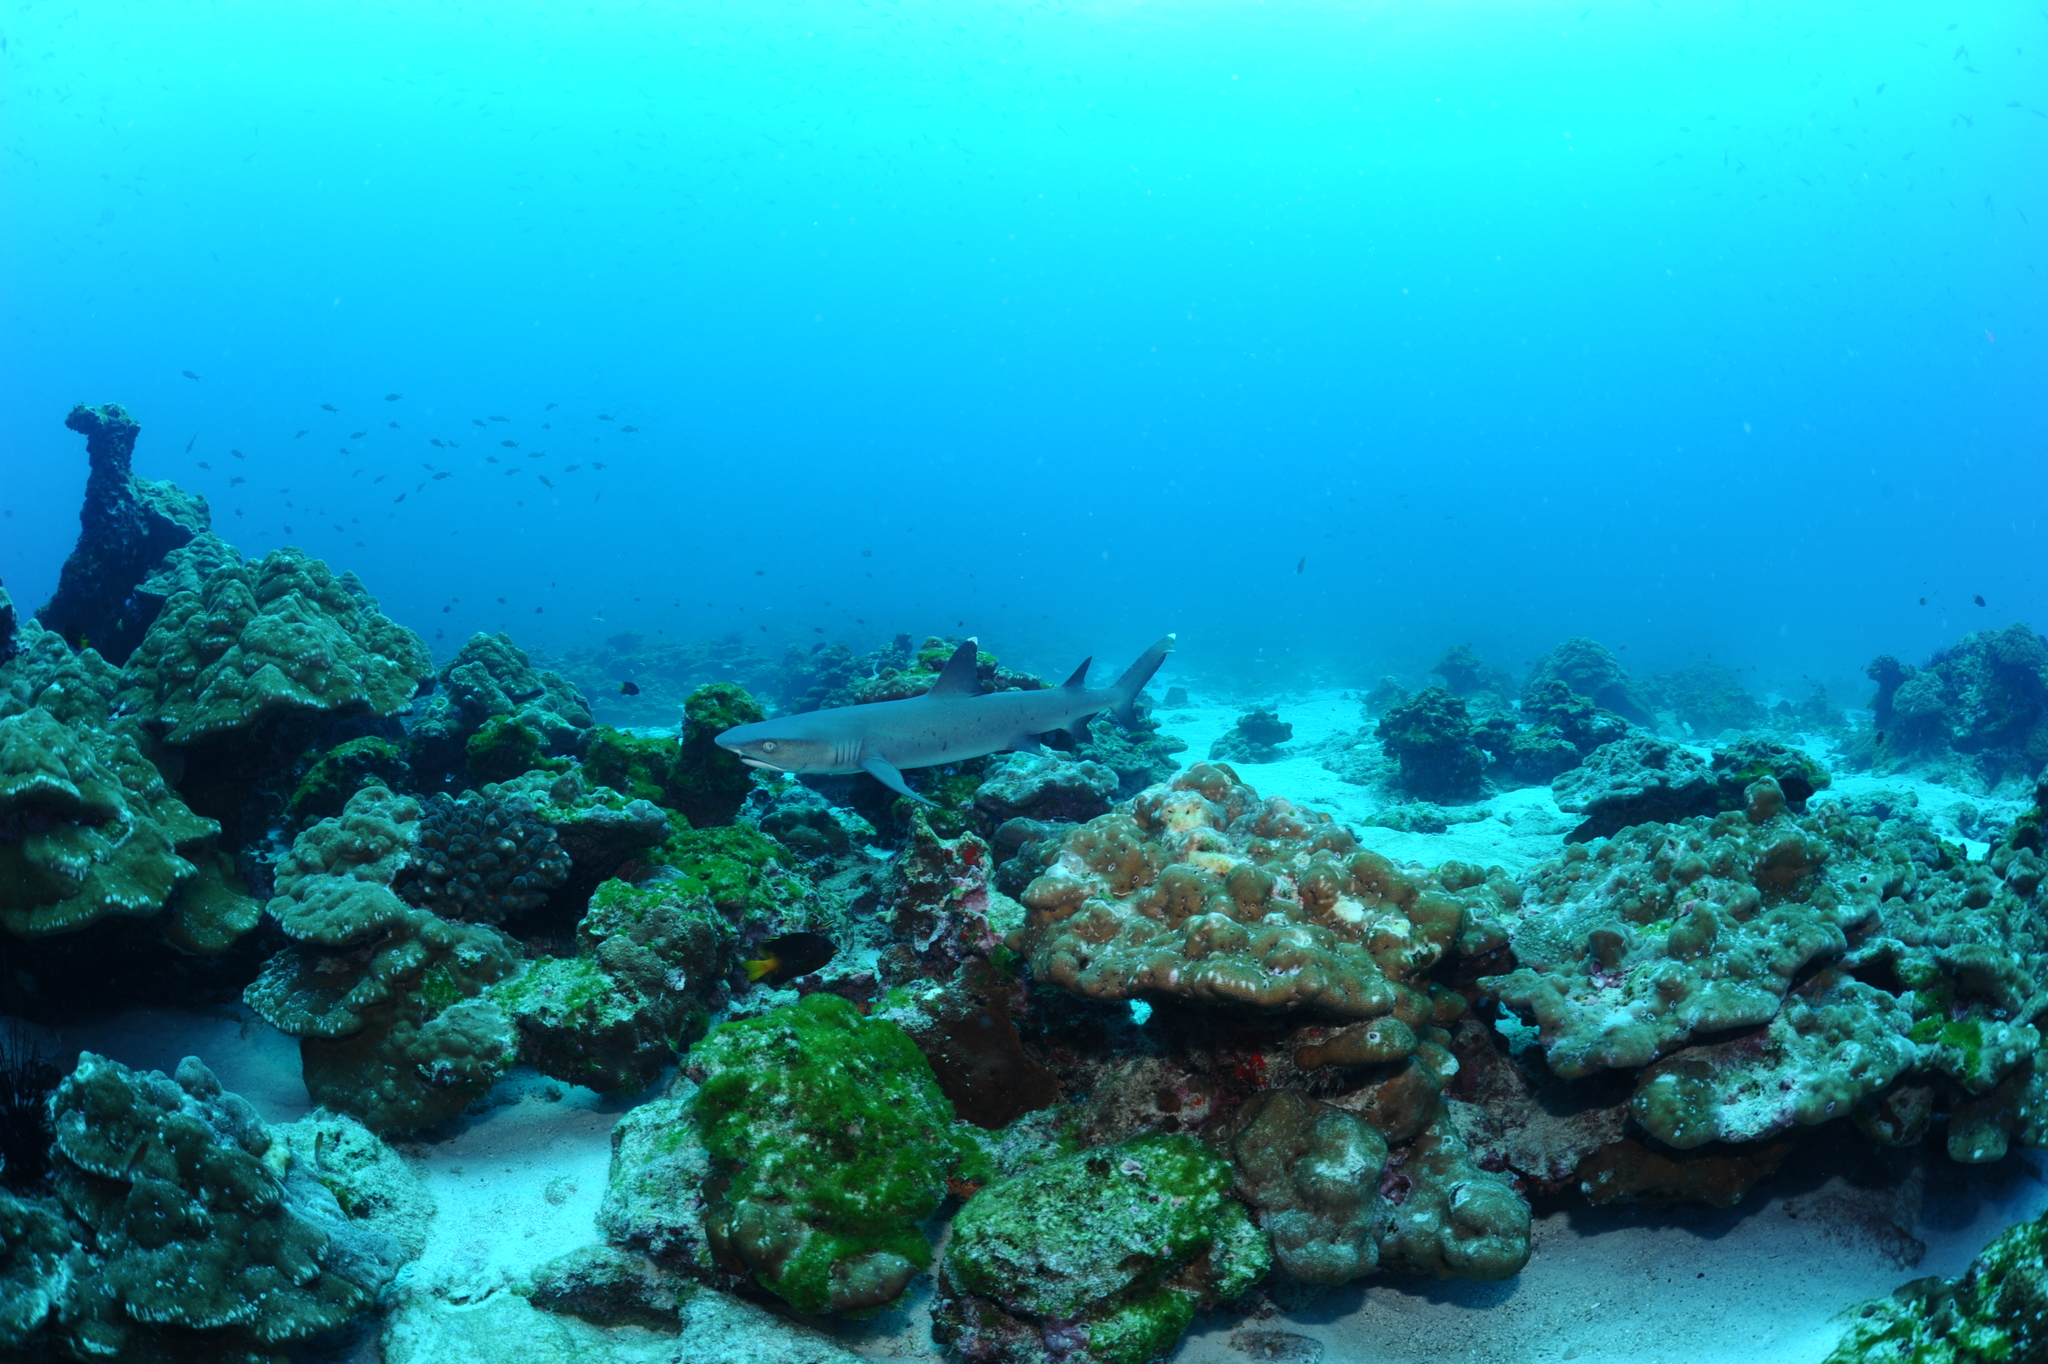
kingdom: Animalia
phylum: Chordata
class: Elasmobranchii
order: Carcharhiniformes
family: Carcharhinidae
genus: Triaenodon
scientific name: Triaenodon obesus
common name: Whitetip reef shark
